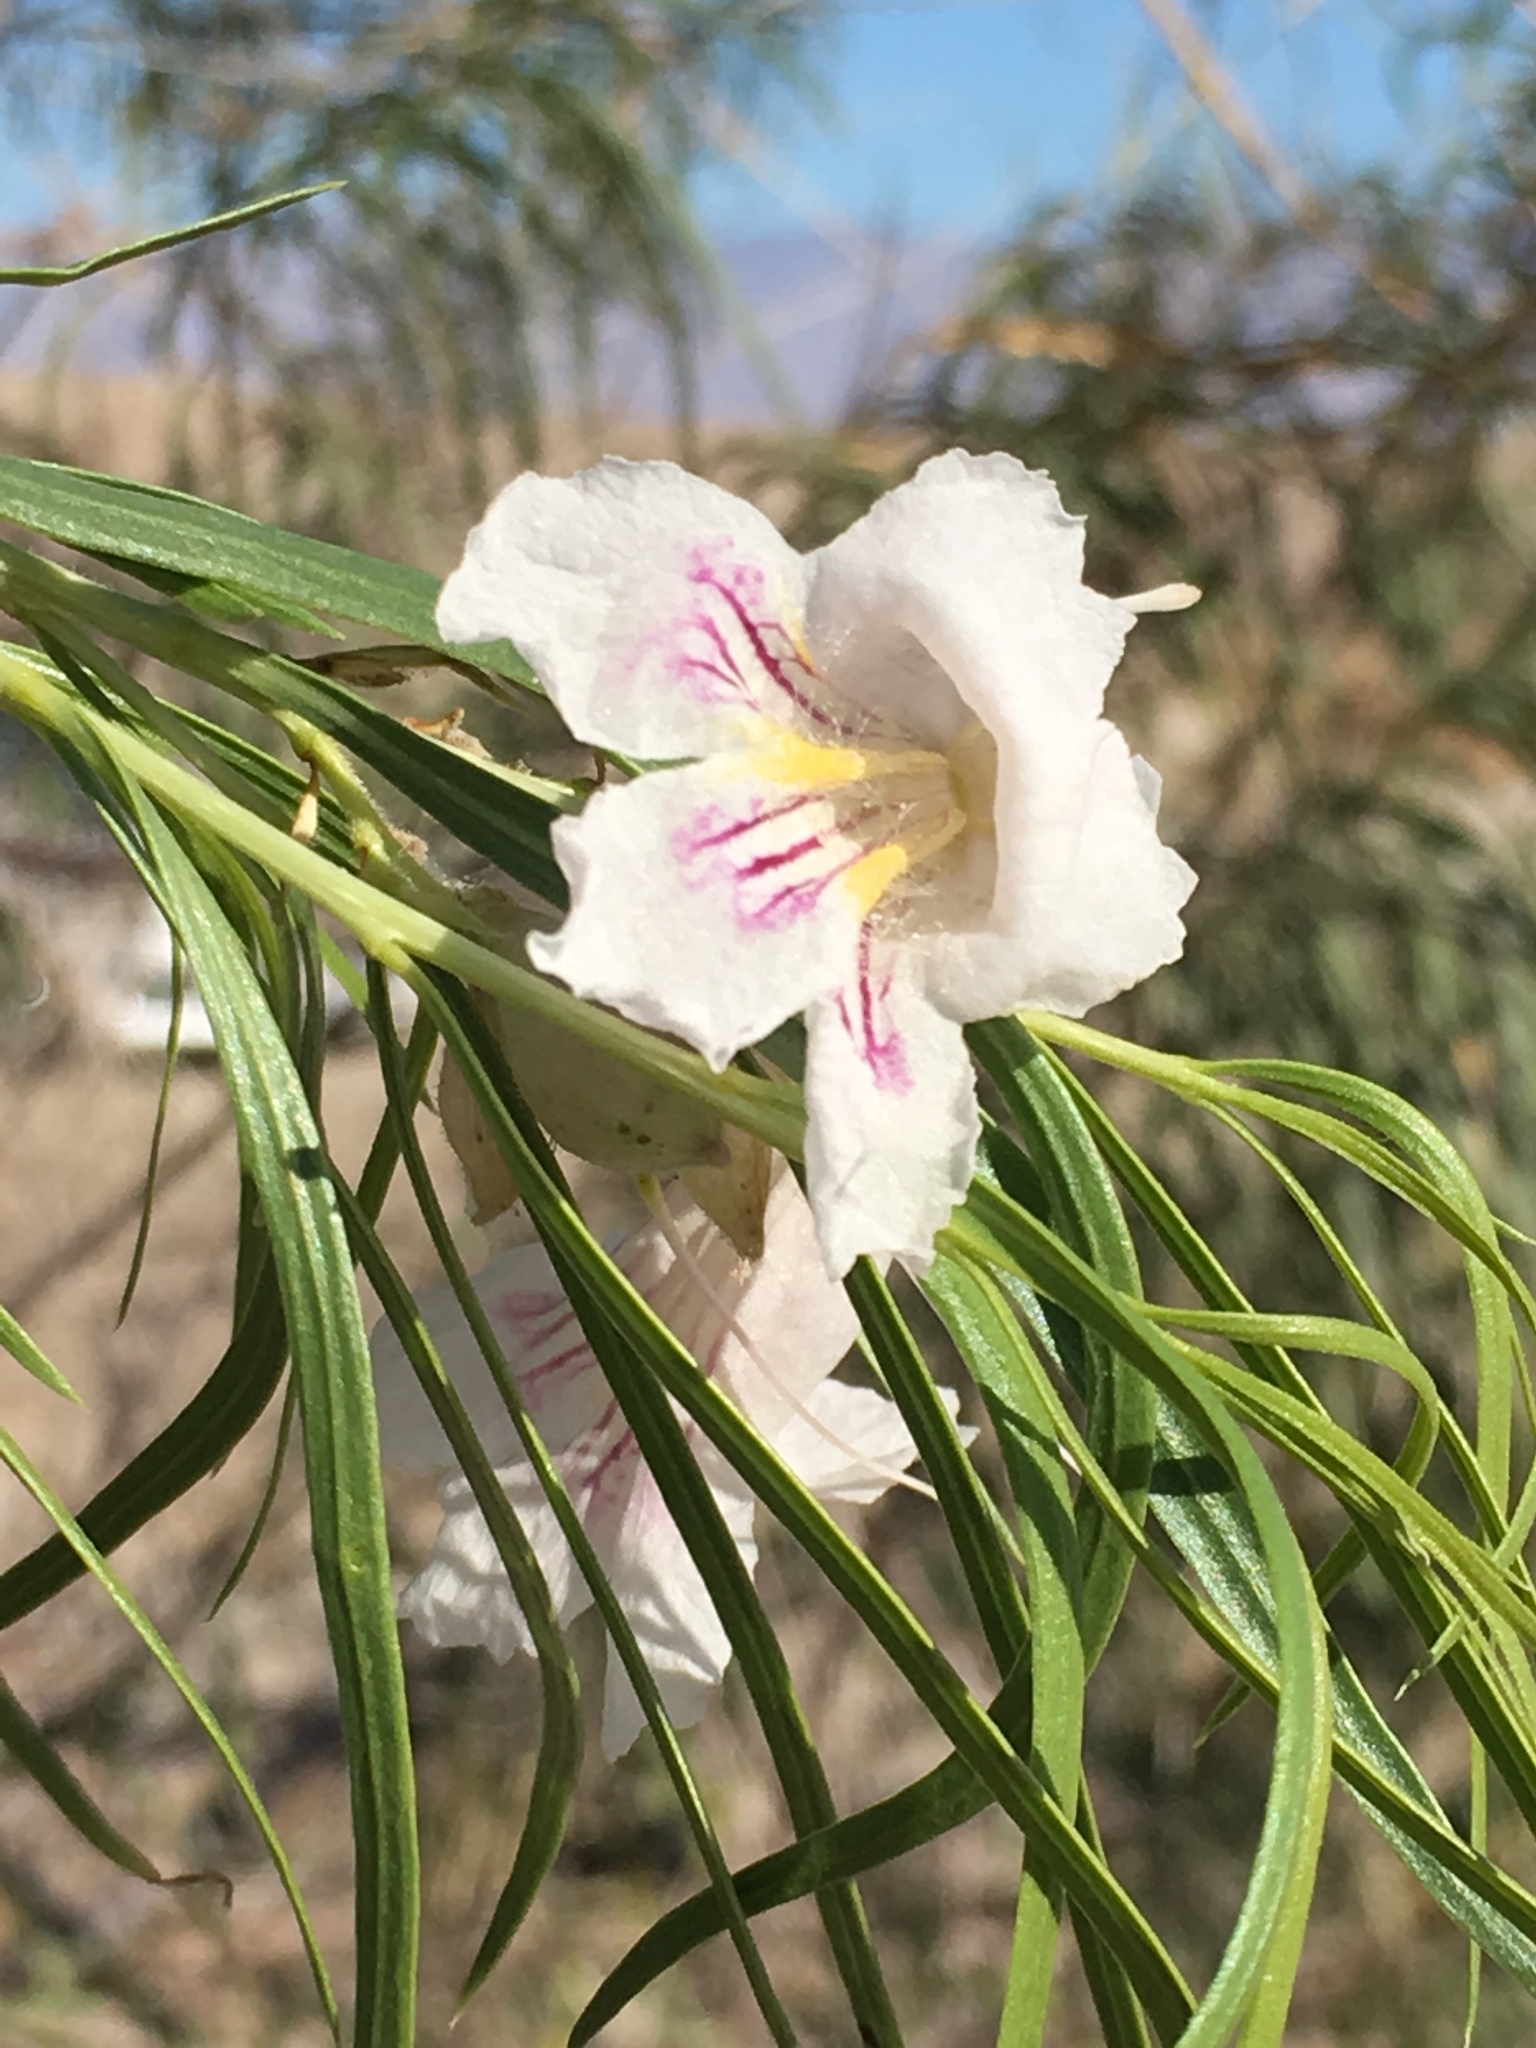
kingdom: Plantae
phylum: Tracheophyta
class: Magnoliopsida
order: Lamiales
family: Bignoniaceae
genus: Chilopsis
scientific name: Chilopsis linearis
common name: Desert-willow
